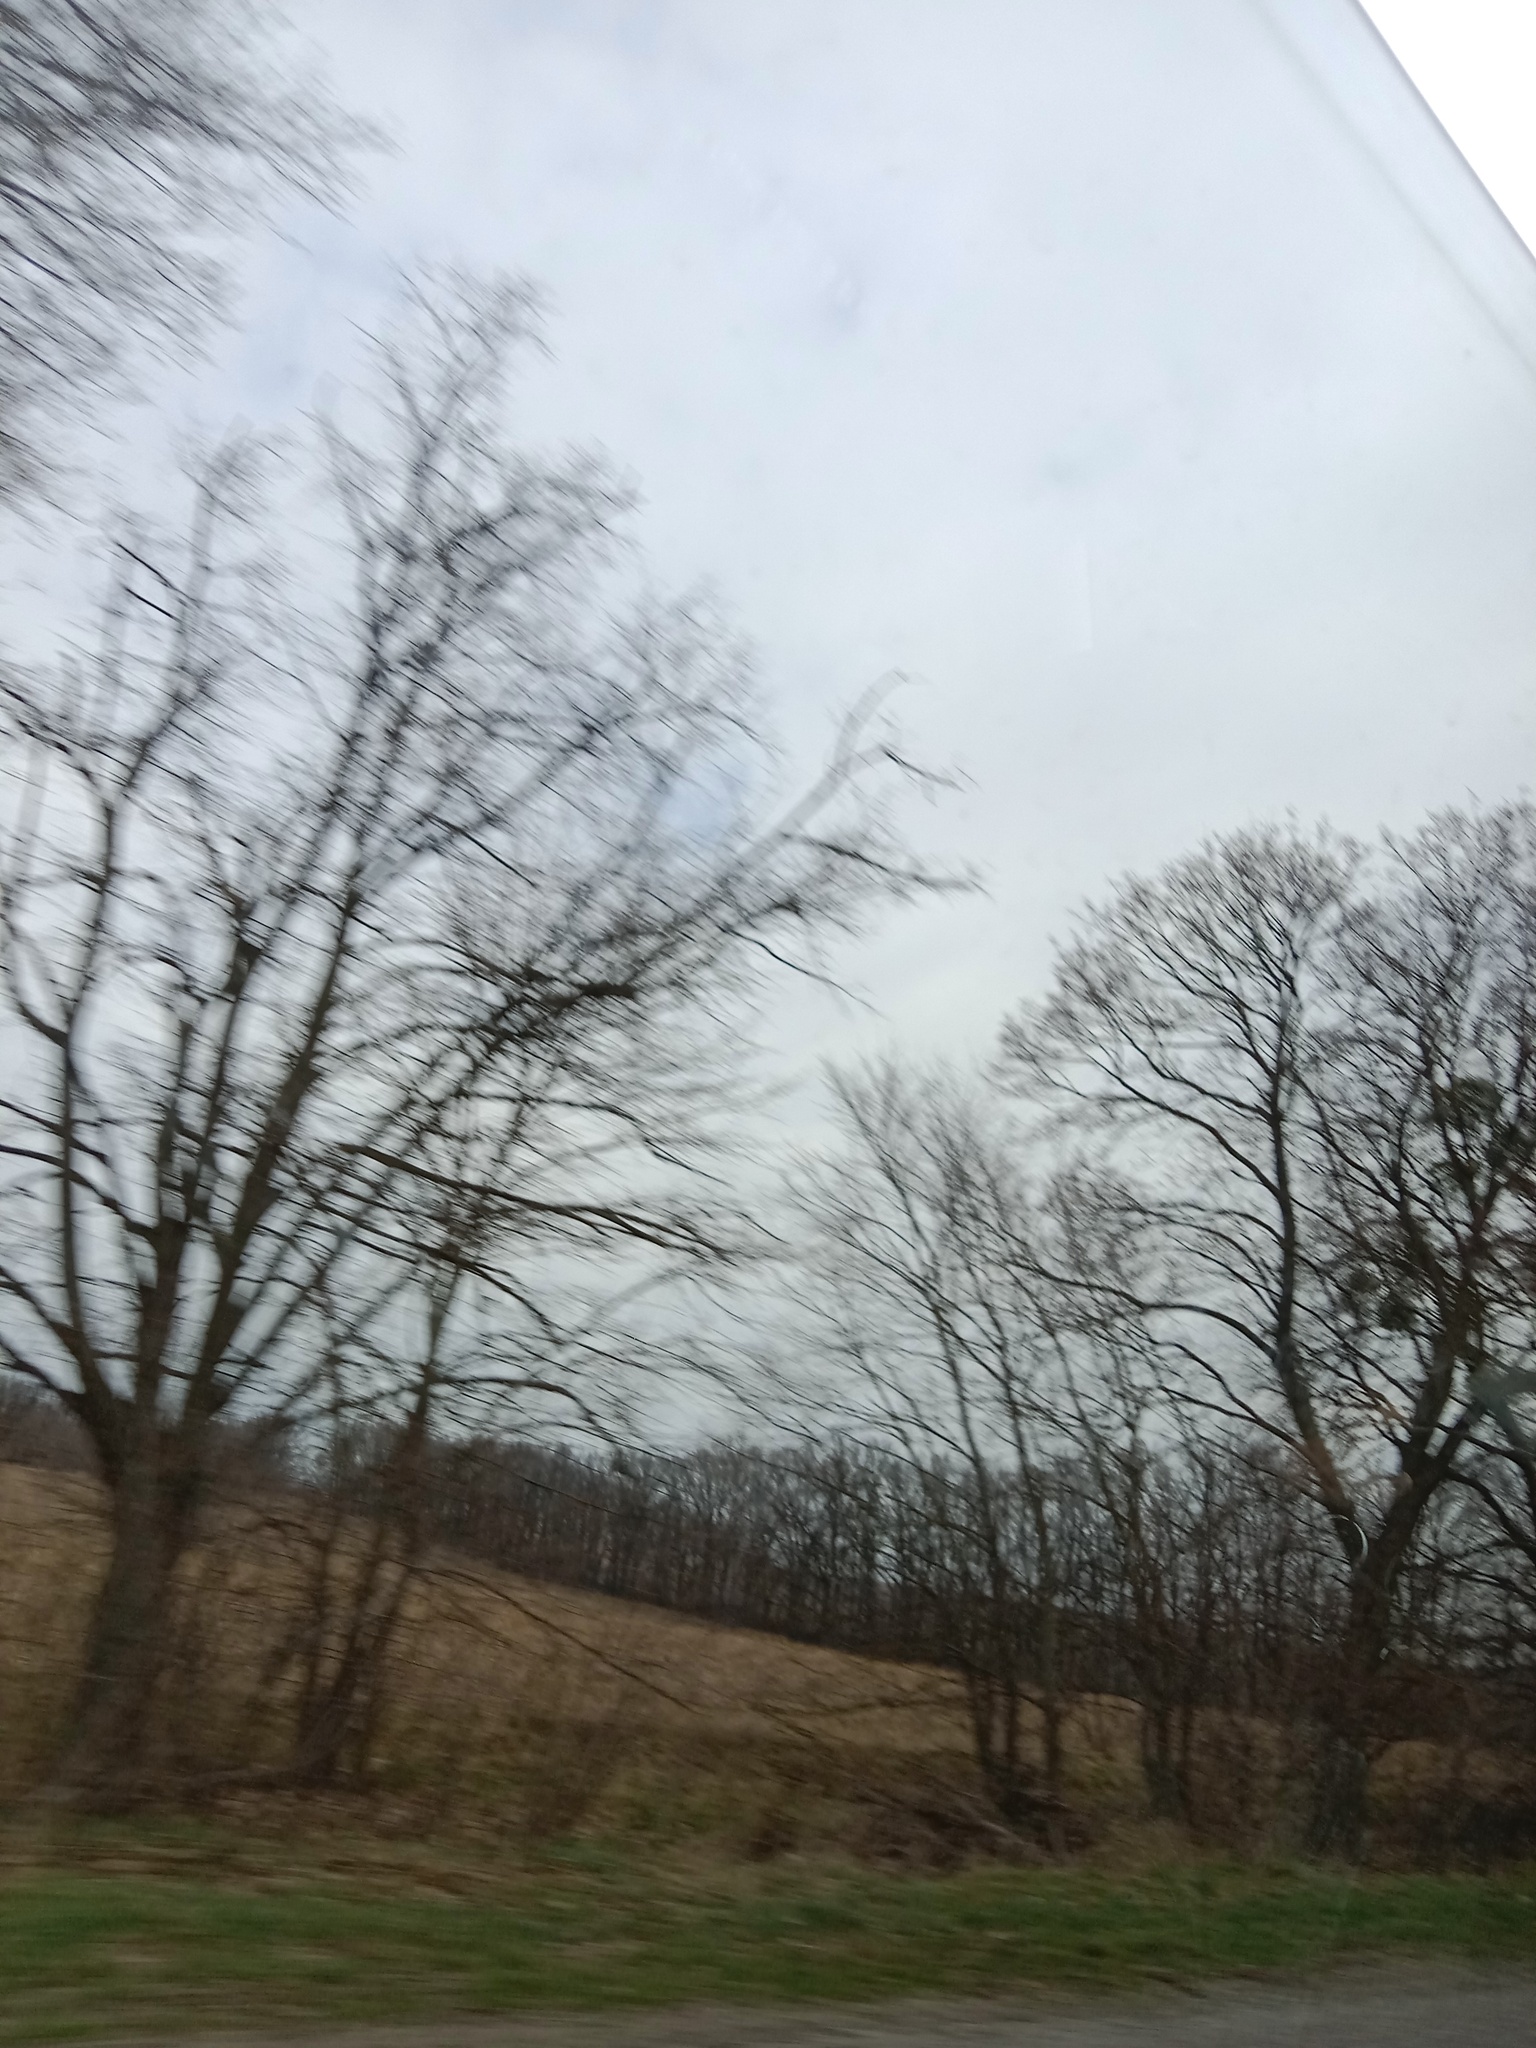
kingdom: Plantae
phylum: Tracheophyta
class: Magnoliopsida
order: Santalales
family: Viscaceae
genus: Viscum
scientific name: Viscum album
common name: Mistletoe
